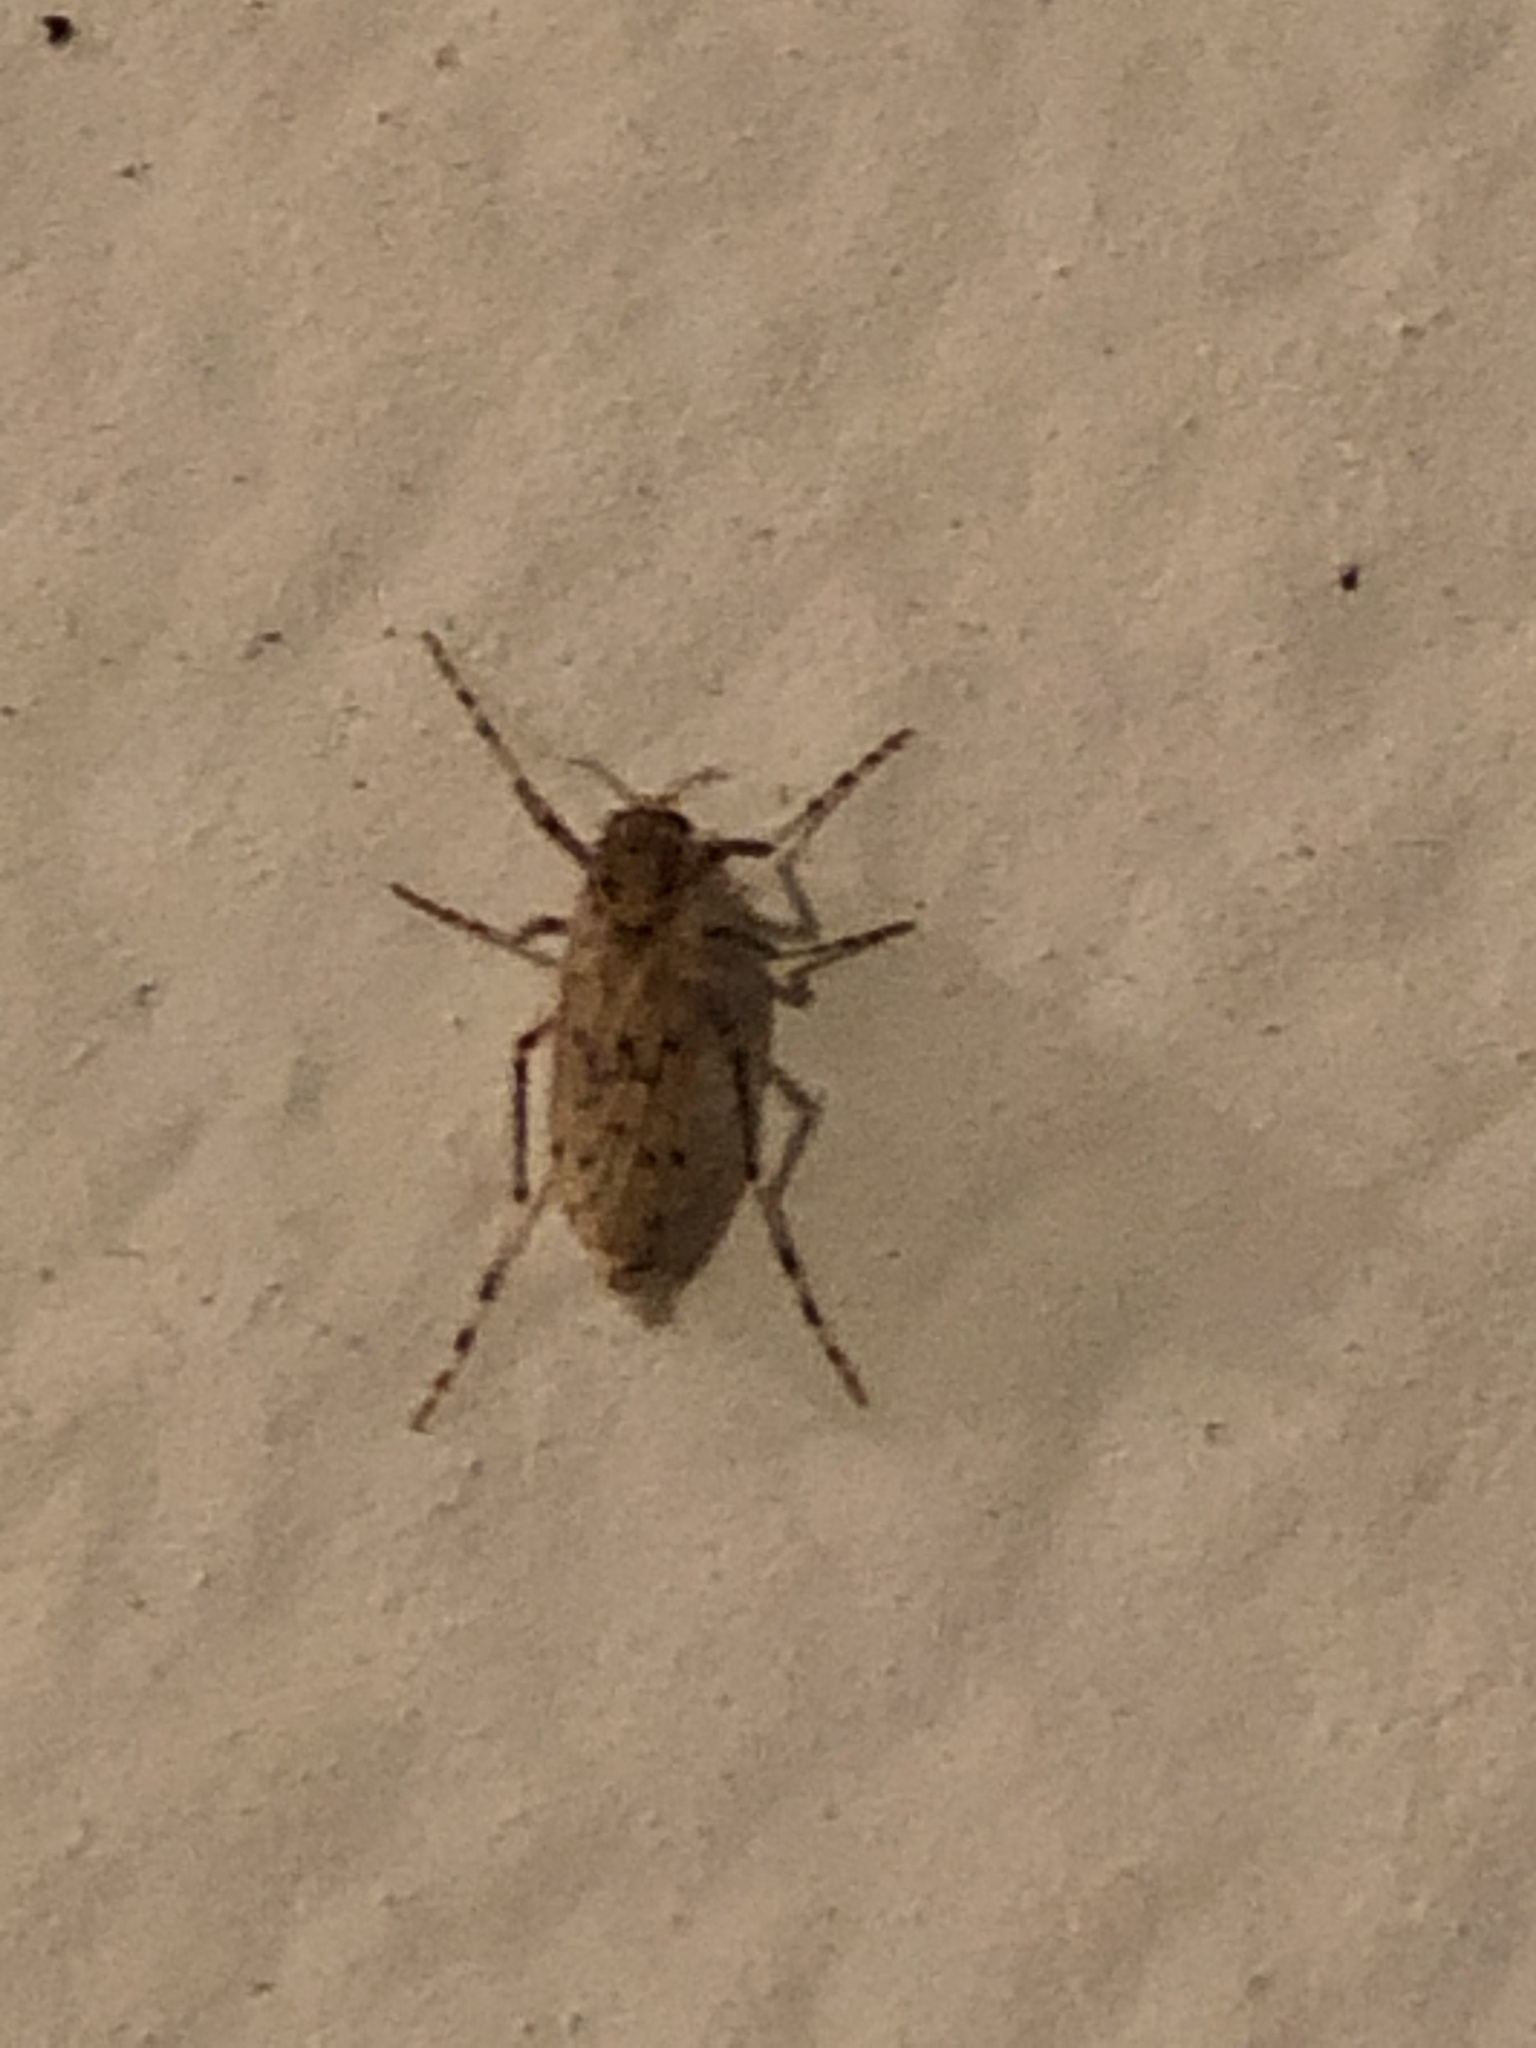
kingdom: Animalia
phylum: Arthropoda
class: Insecta
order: Diptera
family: Chaoboridae
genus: Chaoborus
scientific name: Chaoborus punctipennis
